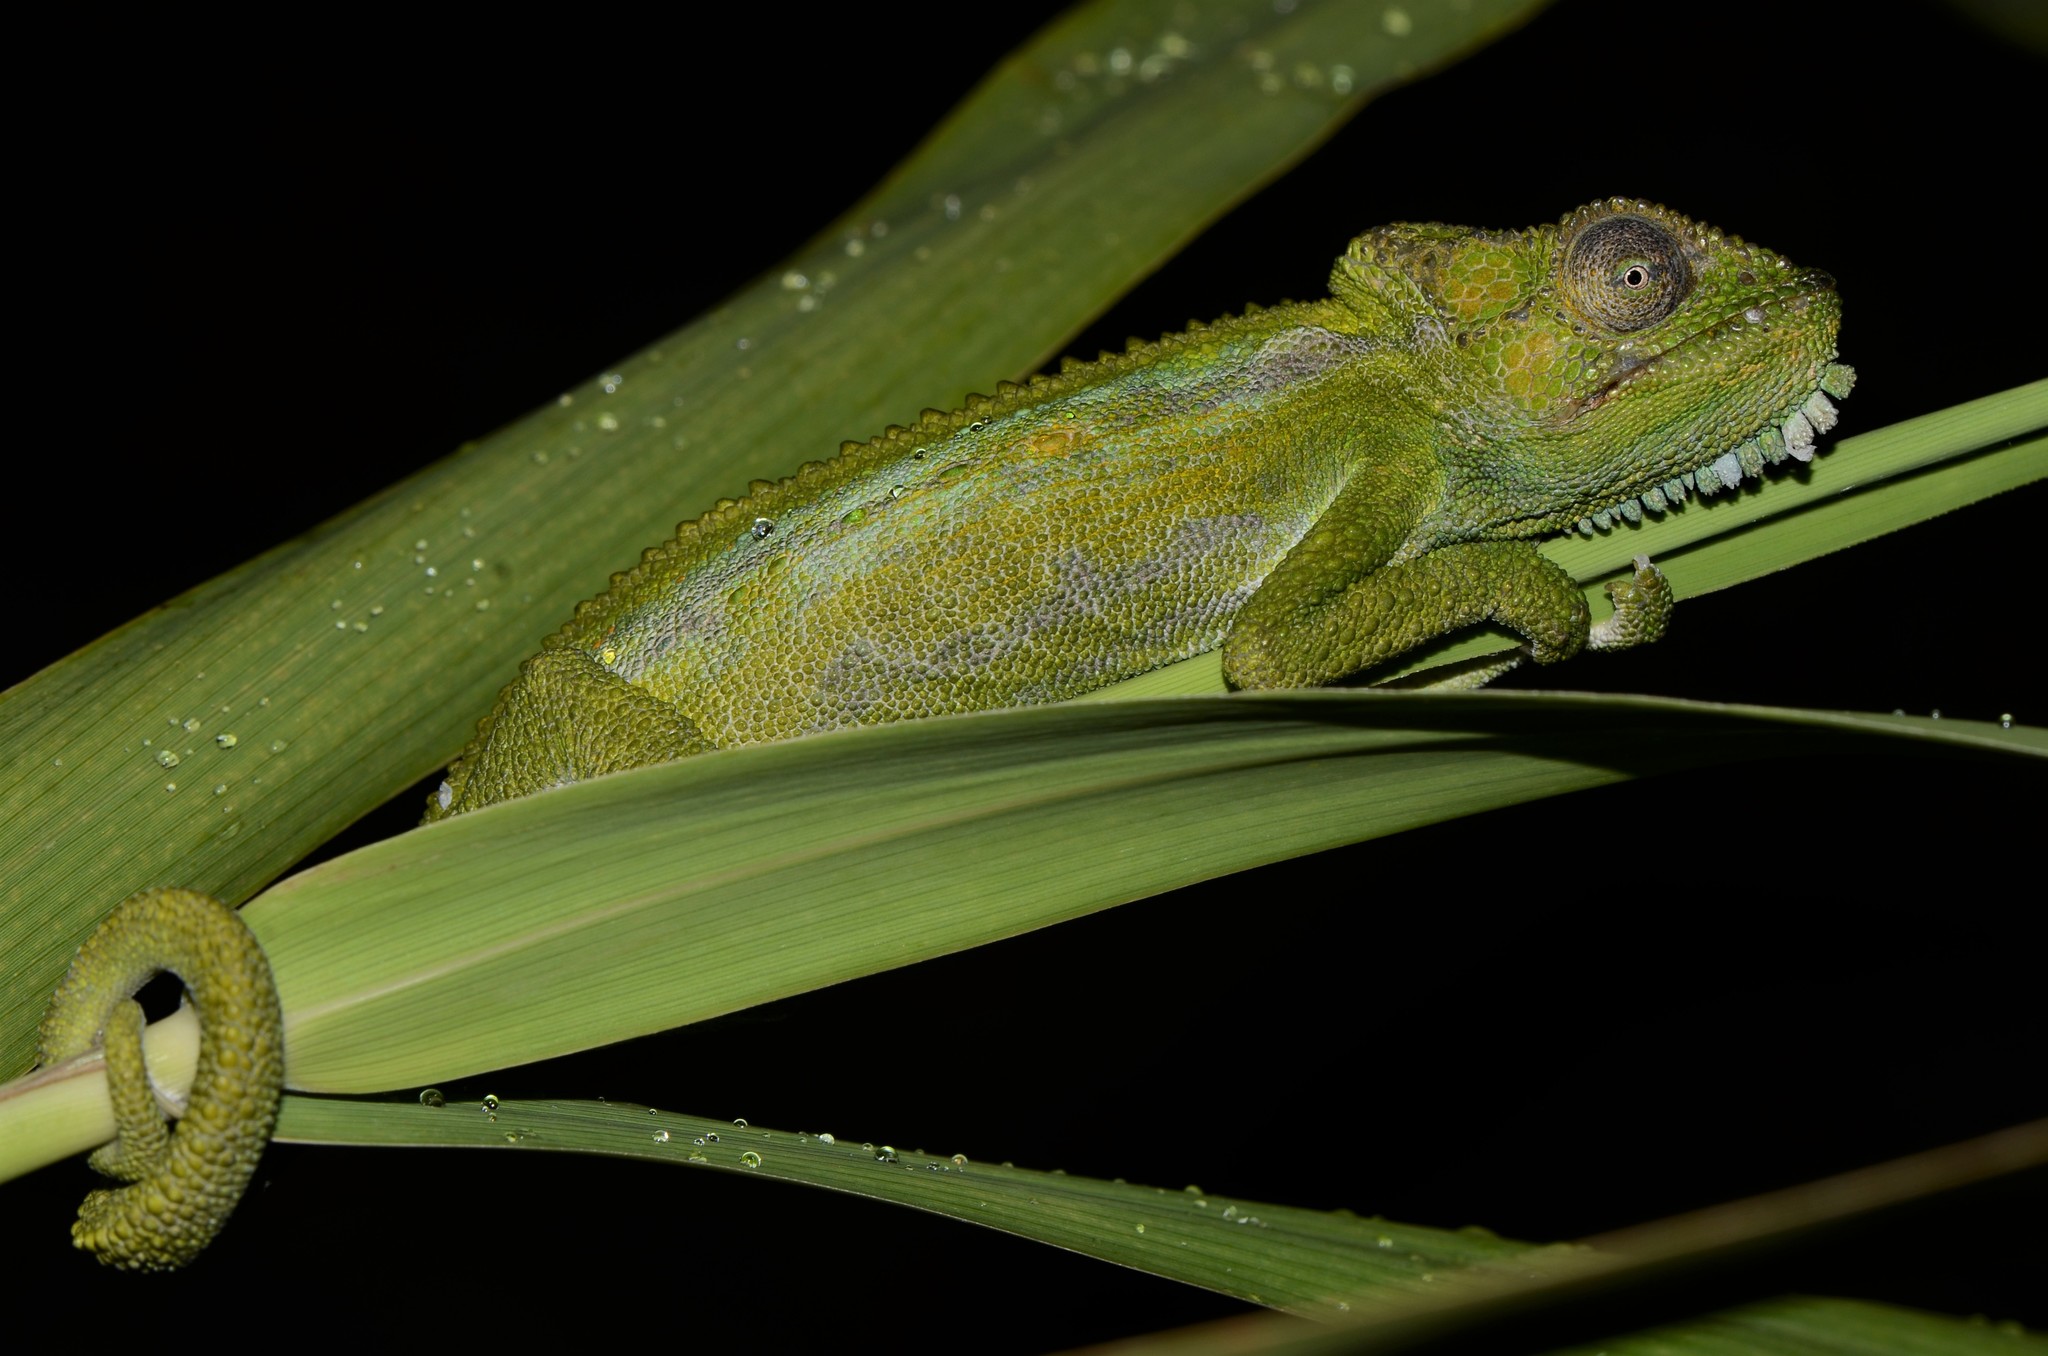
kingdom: Animalia
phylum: Chordata
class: Squamata
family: Chamaeleonidae
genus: Bradypodion
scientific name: Bradypodion pumilum
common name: Cape dwarf chameleon
